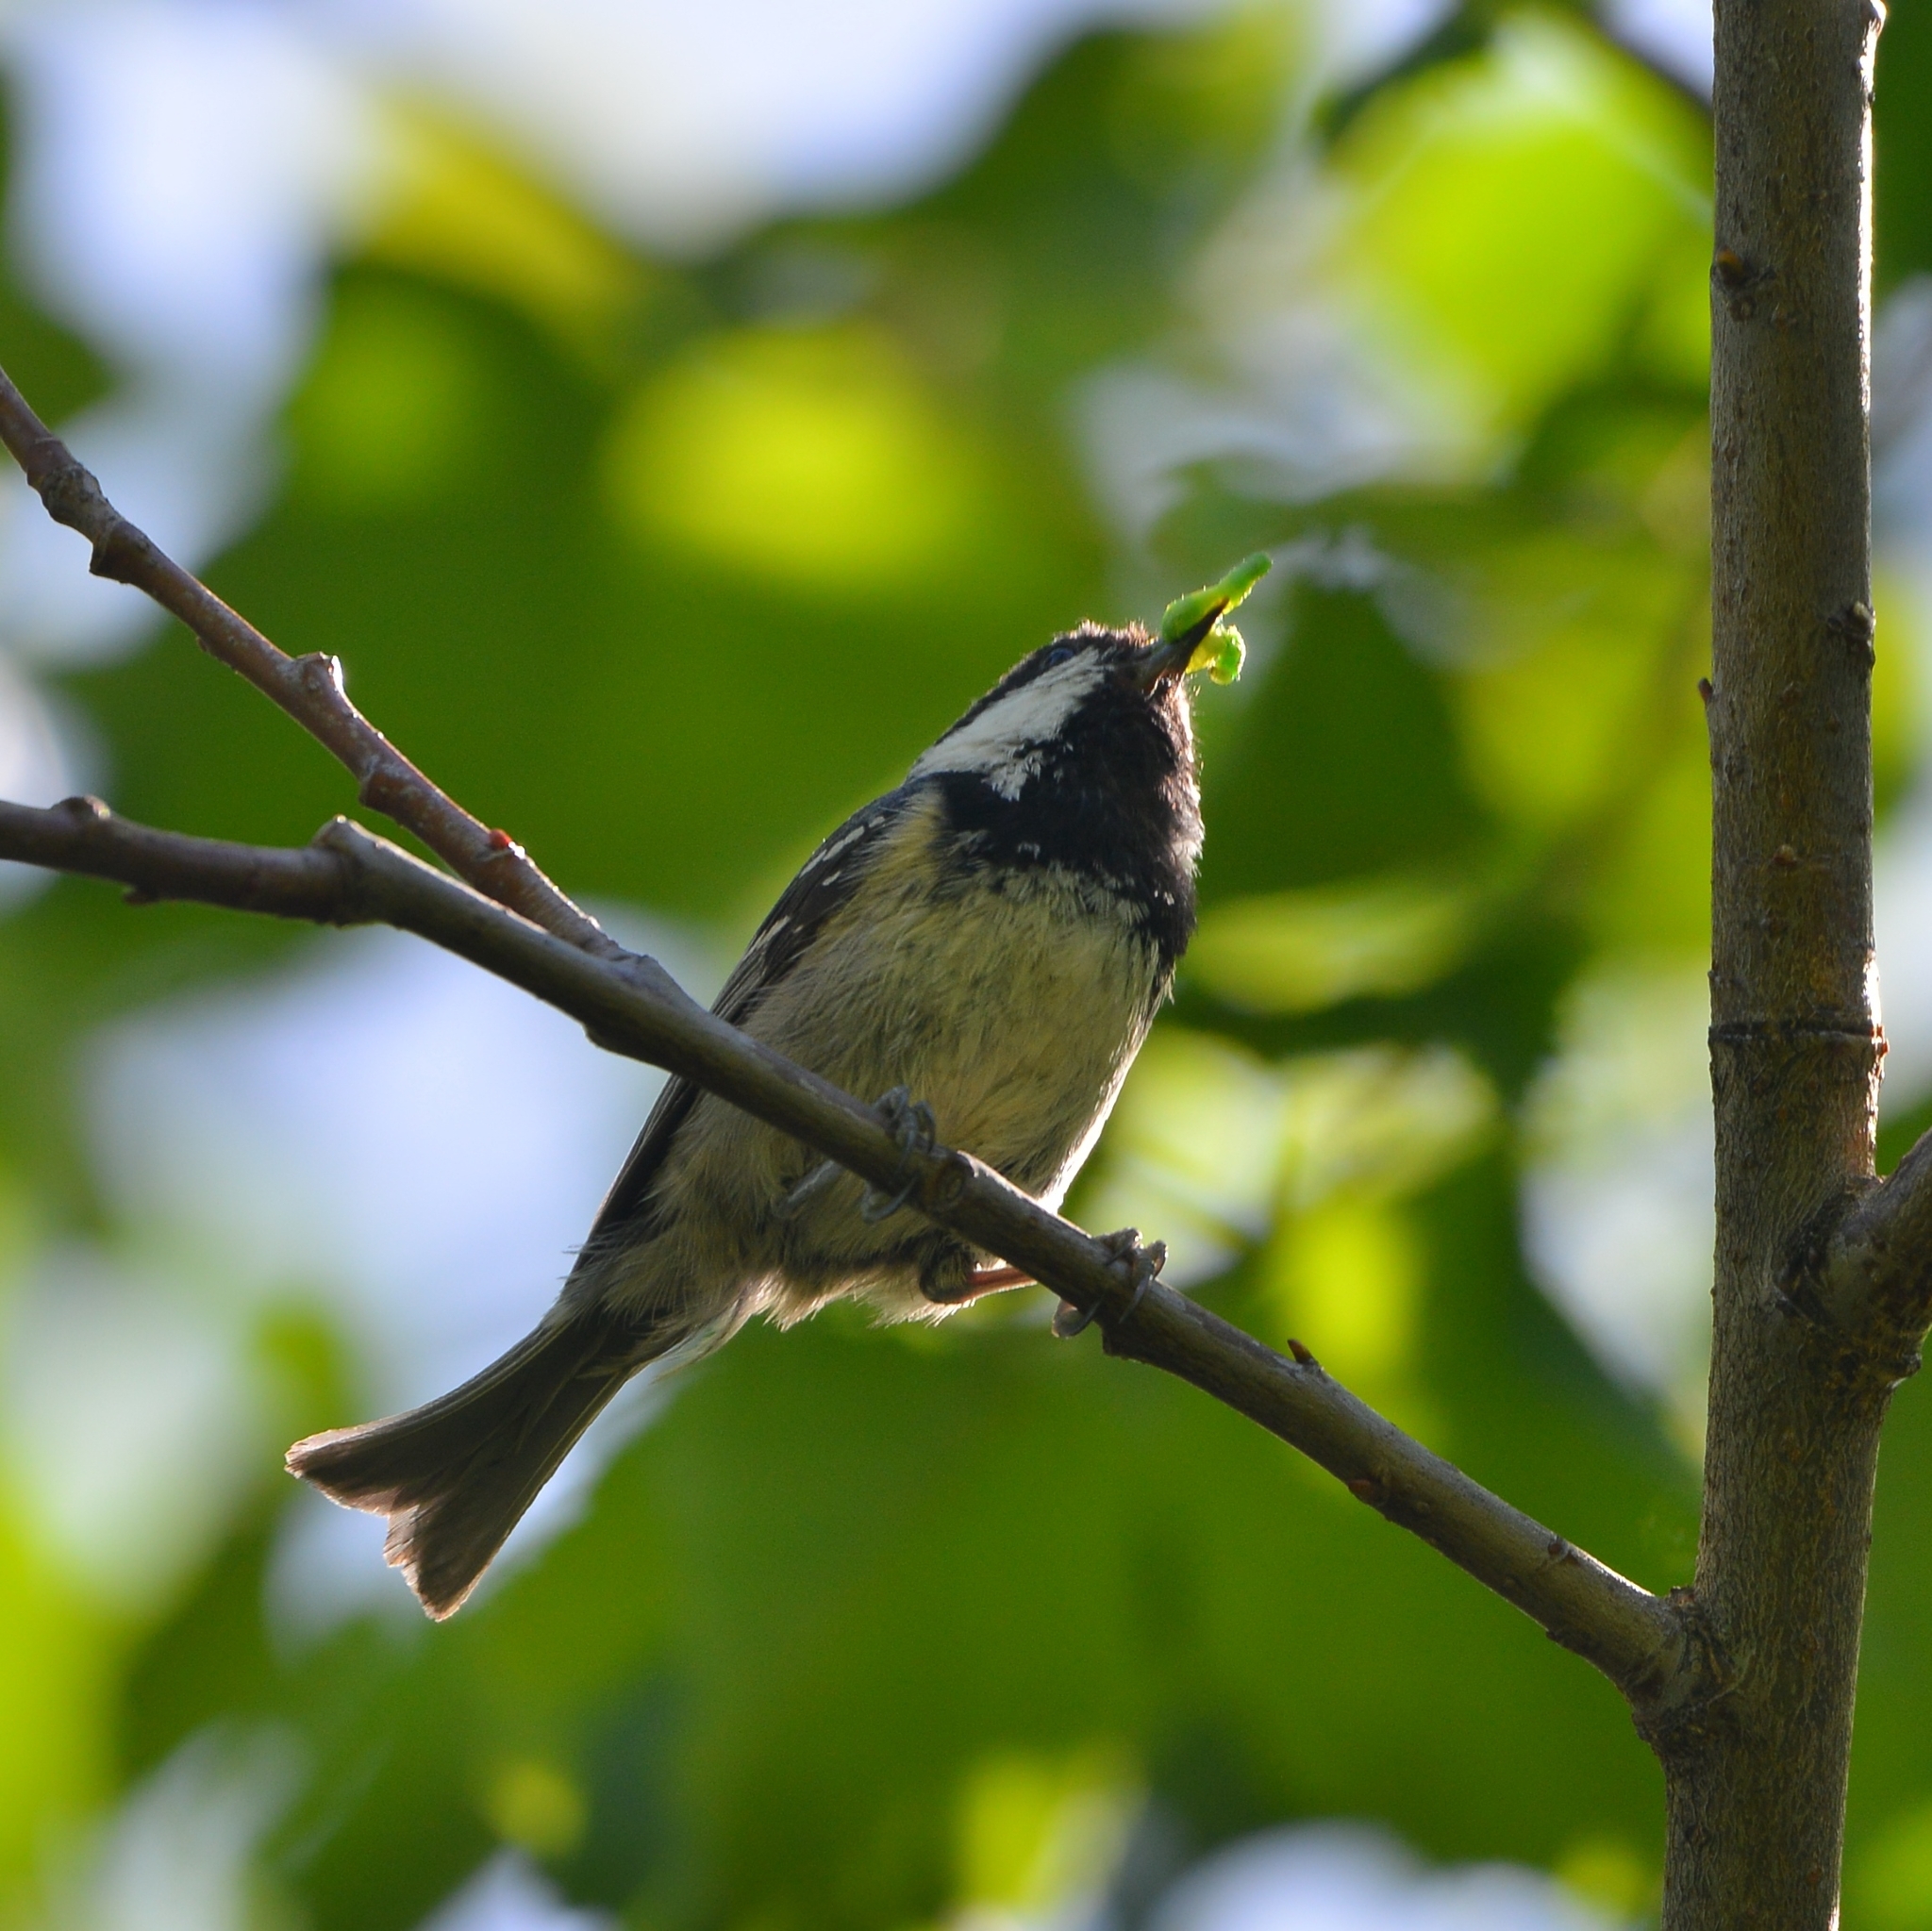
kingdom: Animalia
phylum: Chordata
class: Aves
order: Passeriformes
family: Paridae
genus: Periparus
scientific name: Periparus ater
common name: Coal tit
